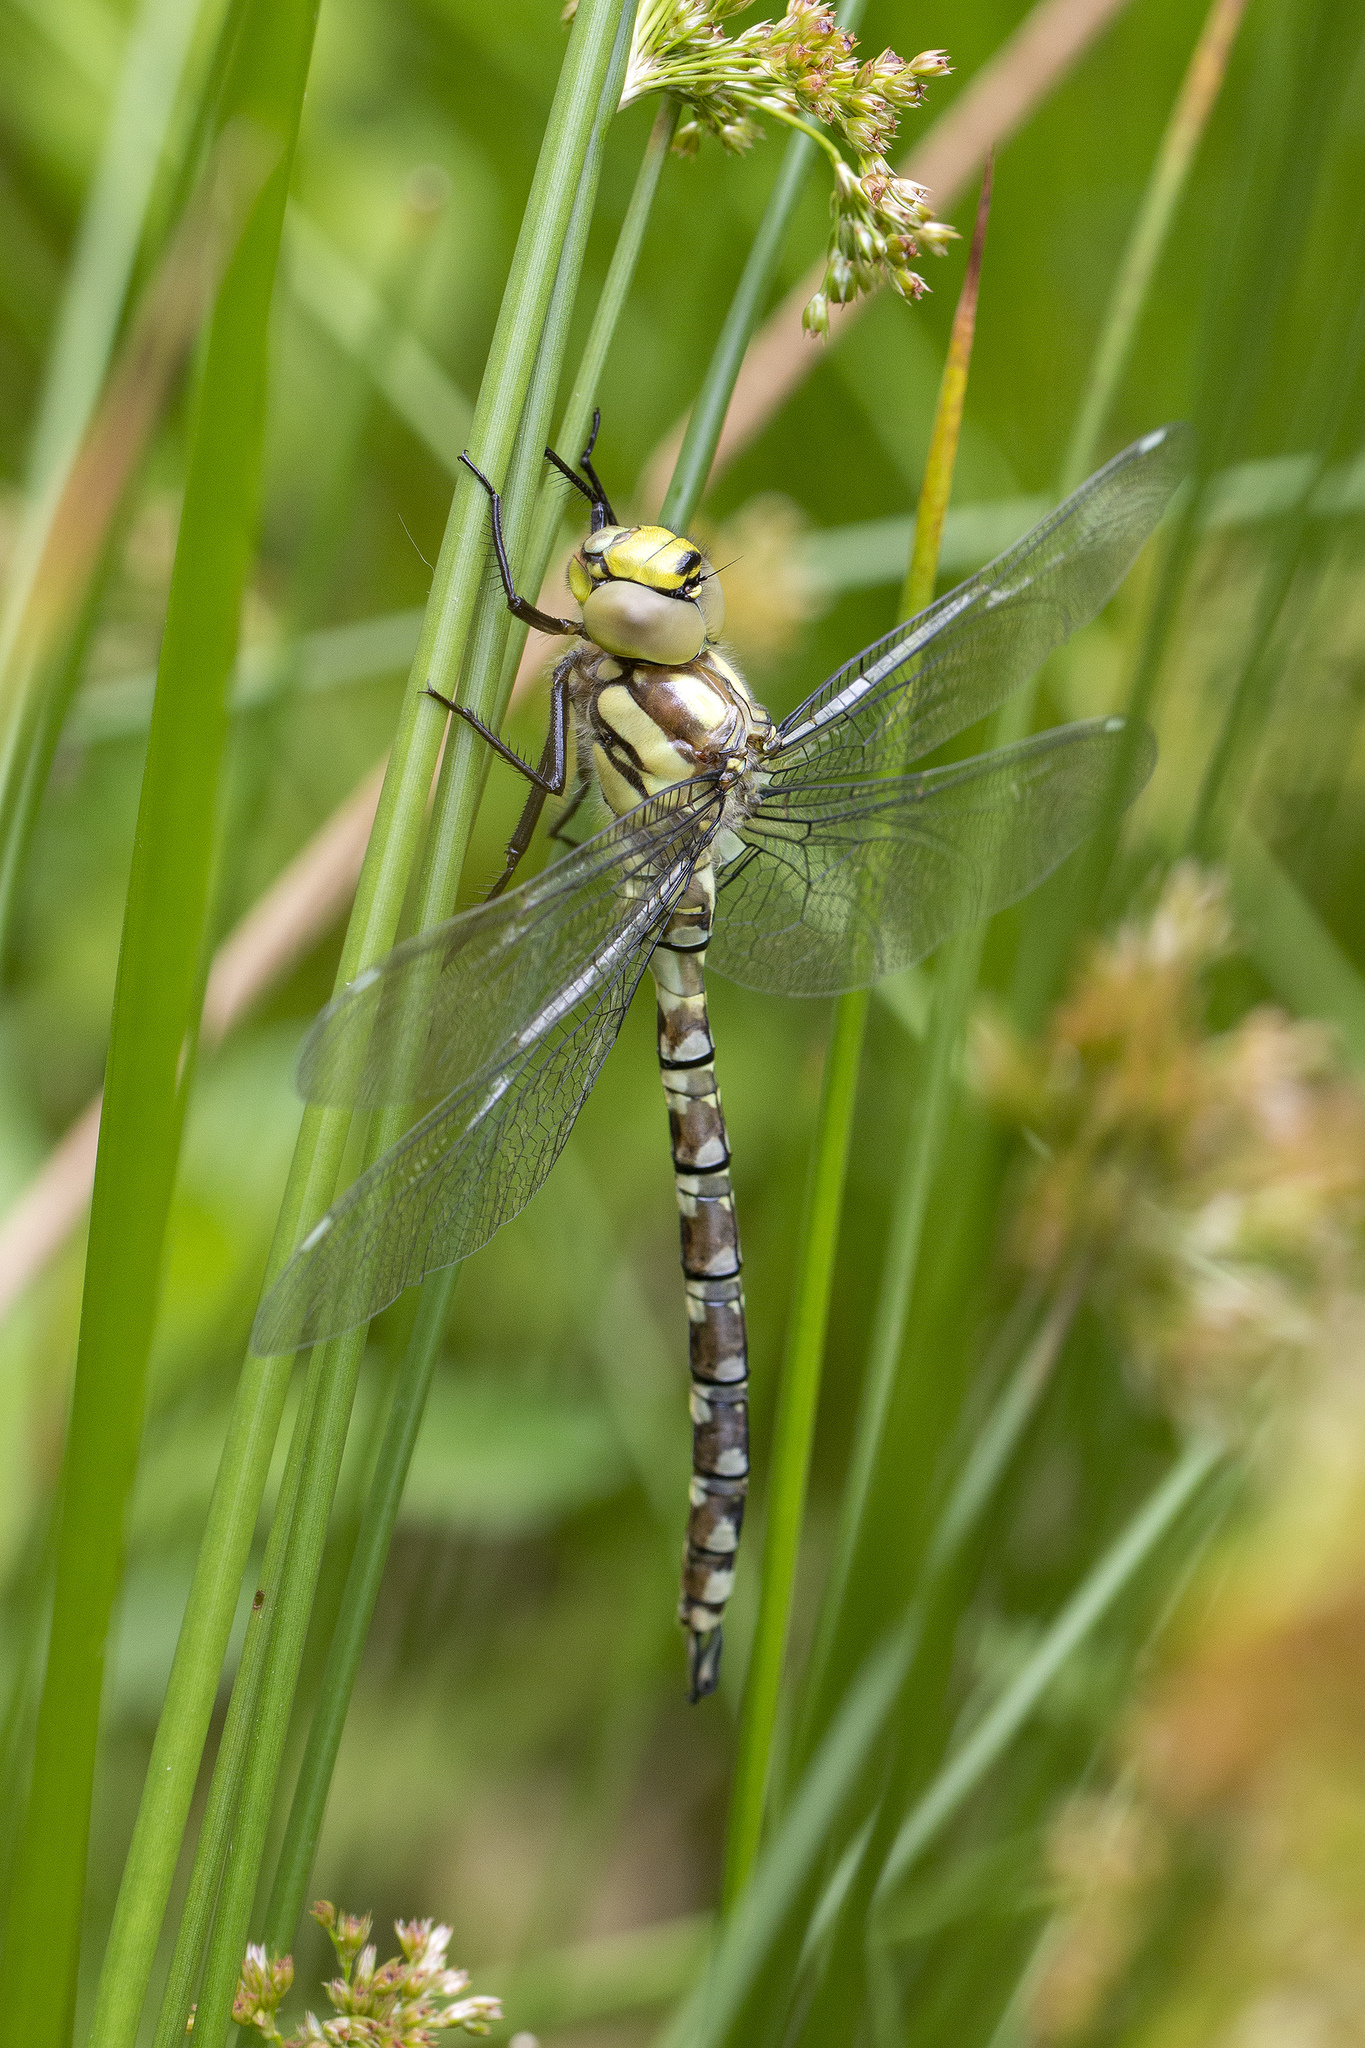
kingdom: Animalia
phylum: Arthropoda
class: Insecta
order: Odonata
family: Aeshnidae
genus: Aeshna
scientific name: Aeshna cyanea
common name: Southern hawker
